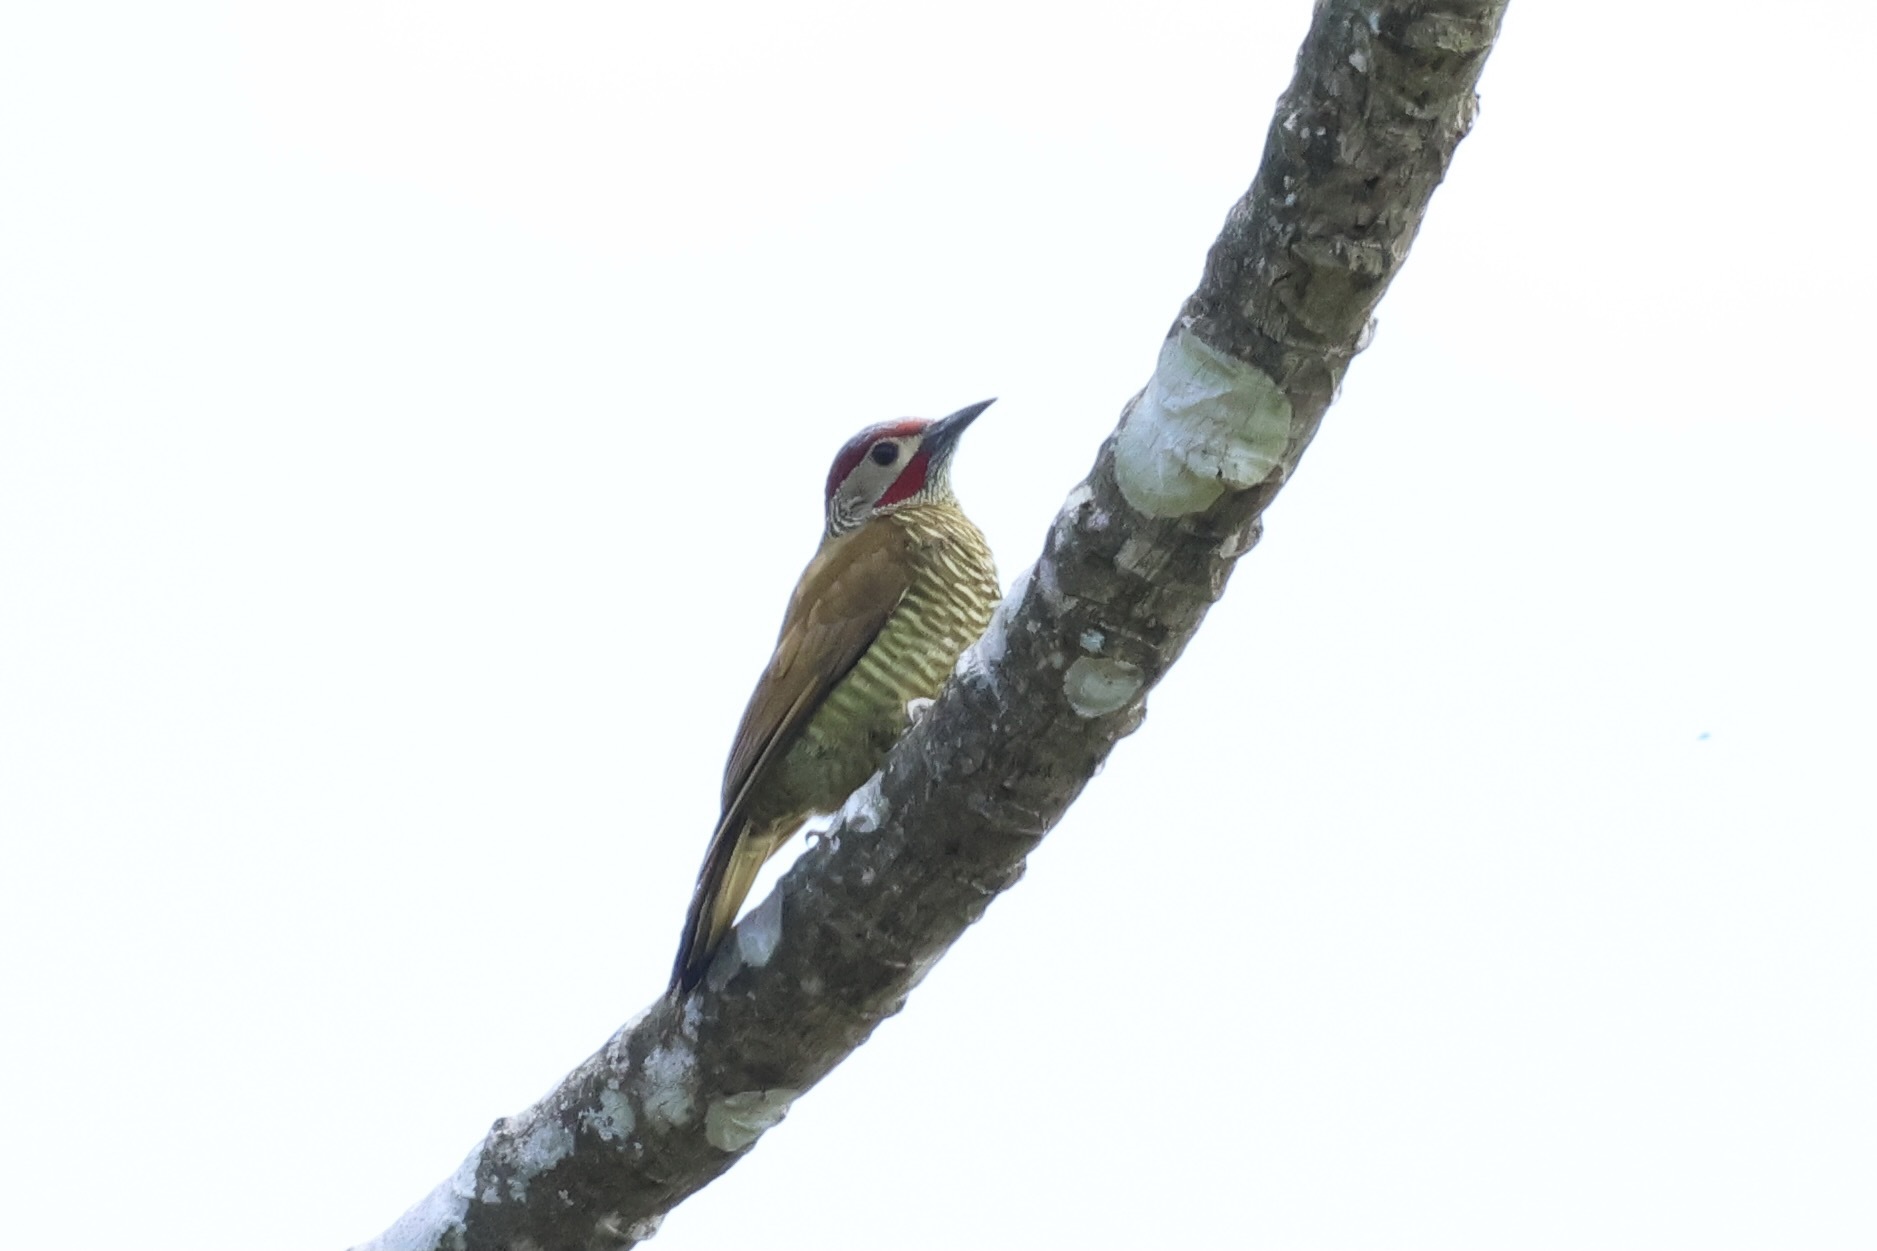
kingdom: Animalia
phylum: Chordata
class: Aves
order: Piciformes
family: Picidae
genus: Colaptes
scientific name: Colaptes rubiginosus
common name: Golden-olive woodpecker
